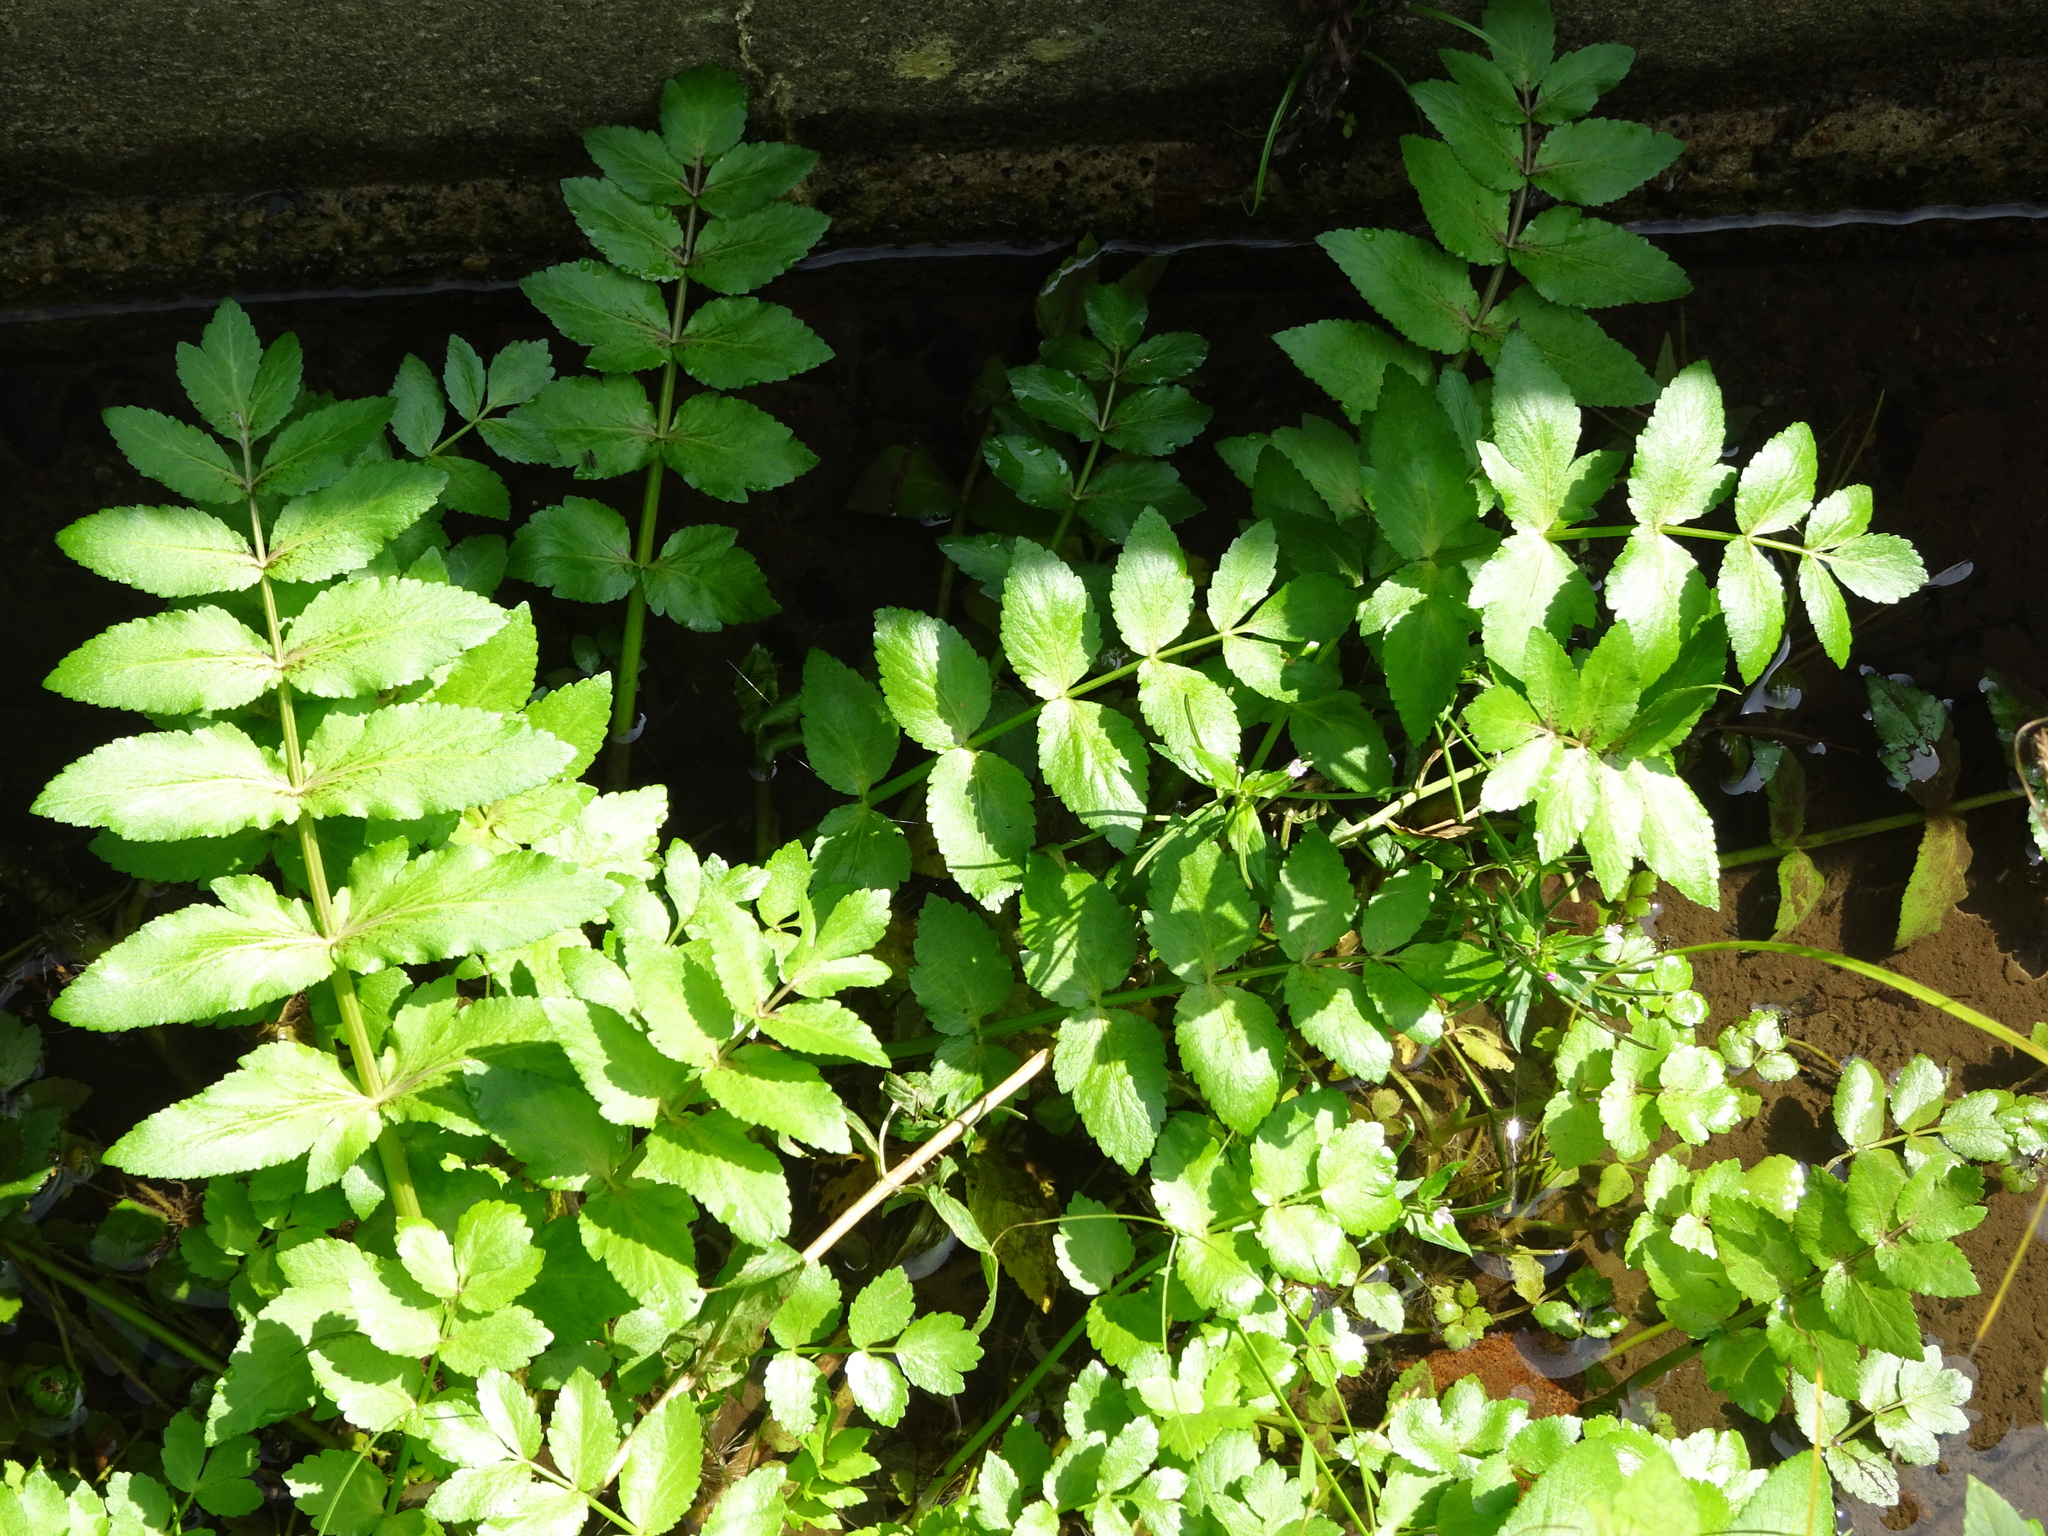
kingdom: Plantae
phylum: Tracheophyta
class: Magnoliopsida
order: Apiales
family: Apiaceae
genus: Helosciadium
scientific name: Helosciadium nodiflorum
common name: Fool's-watercress
